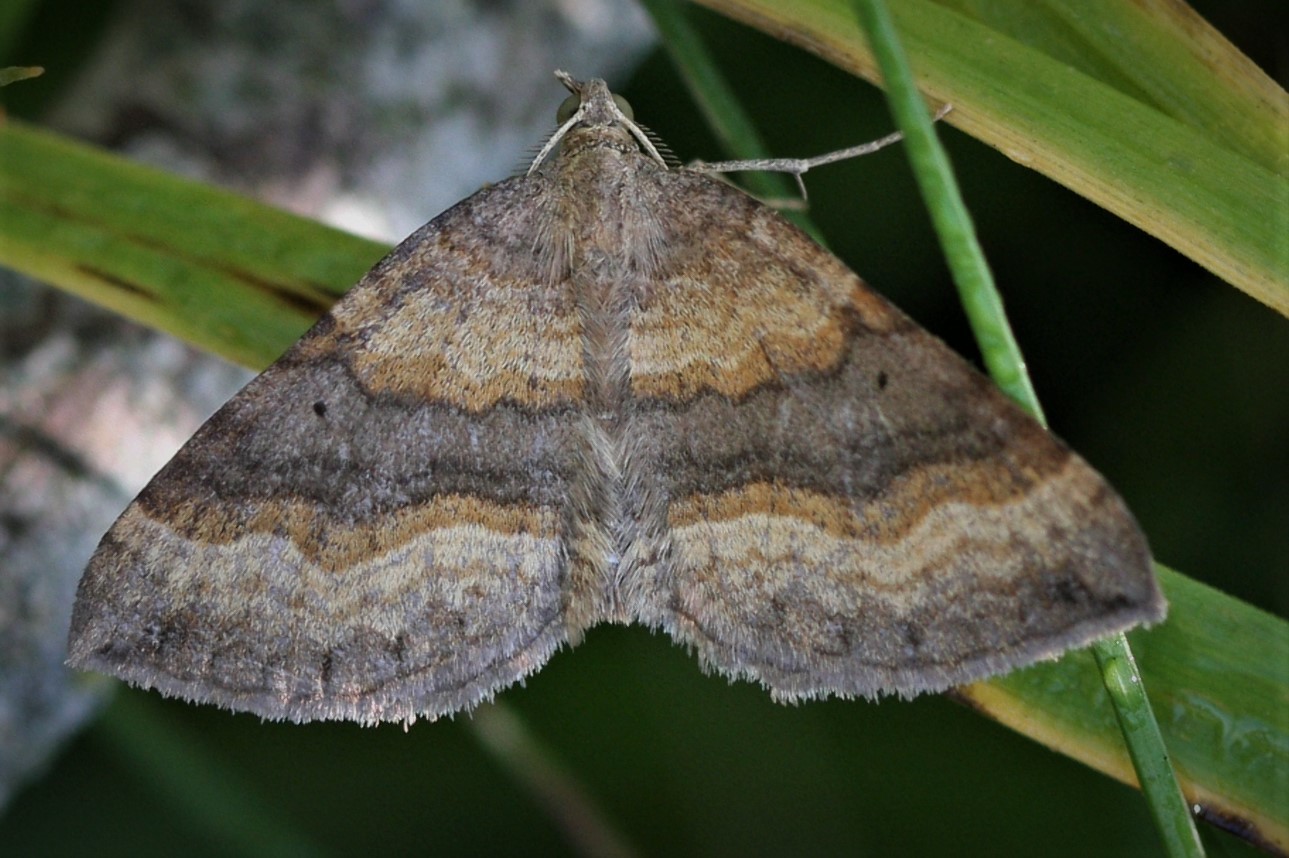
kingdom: Animalia
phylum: Arthropoda
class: Insecta
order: Lepidoptera
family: Geometridae
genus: Scotopteryx
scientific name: Scotopteryx chenopodiata
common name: Shaded broad-bar
